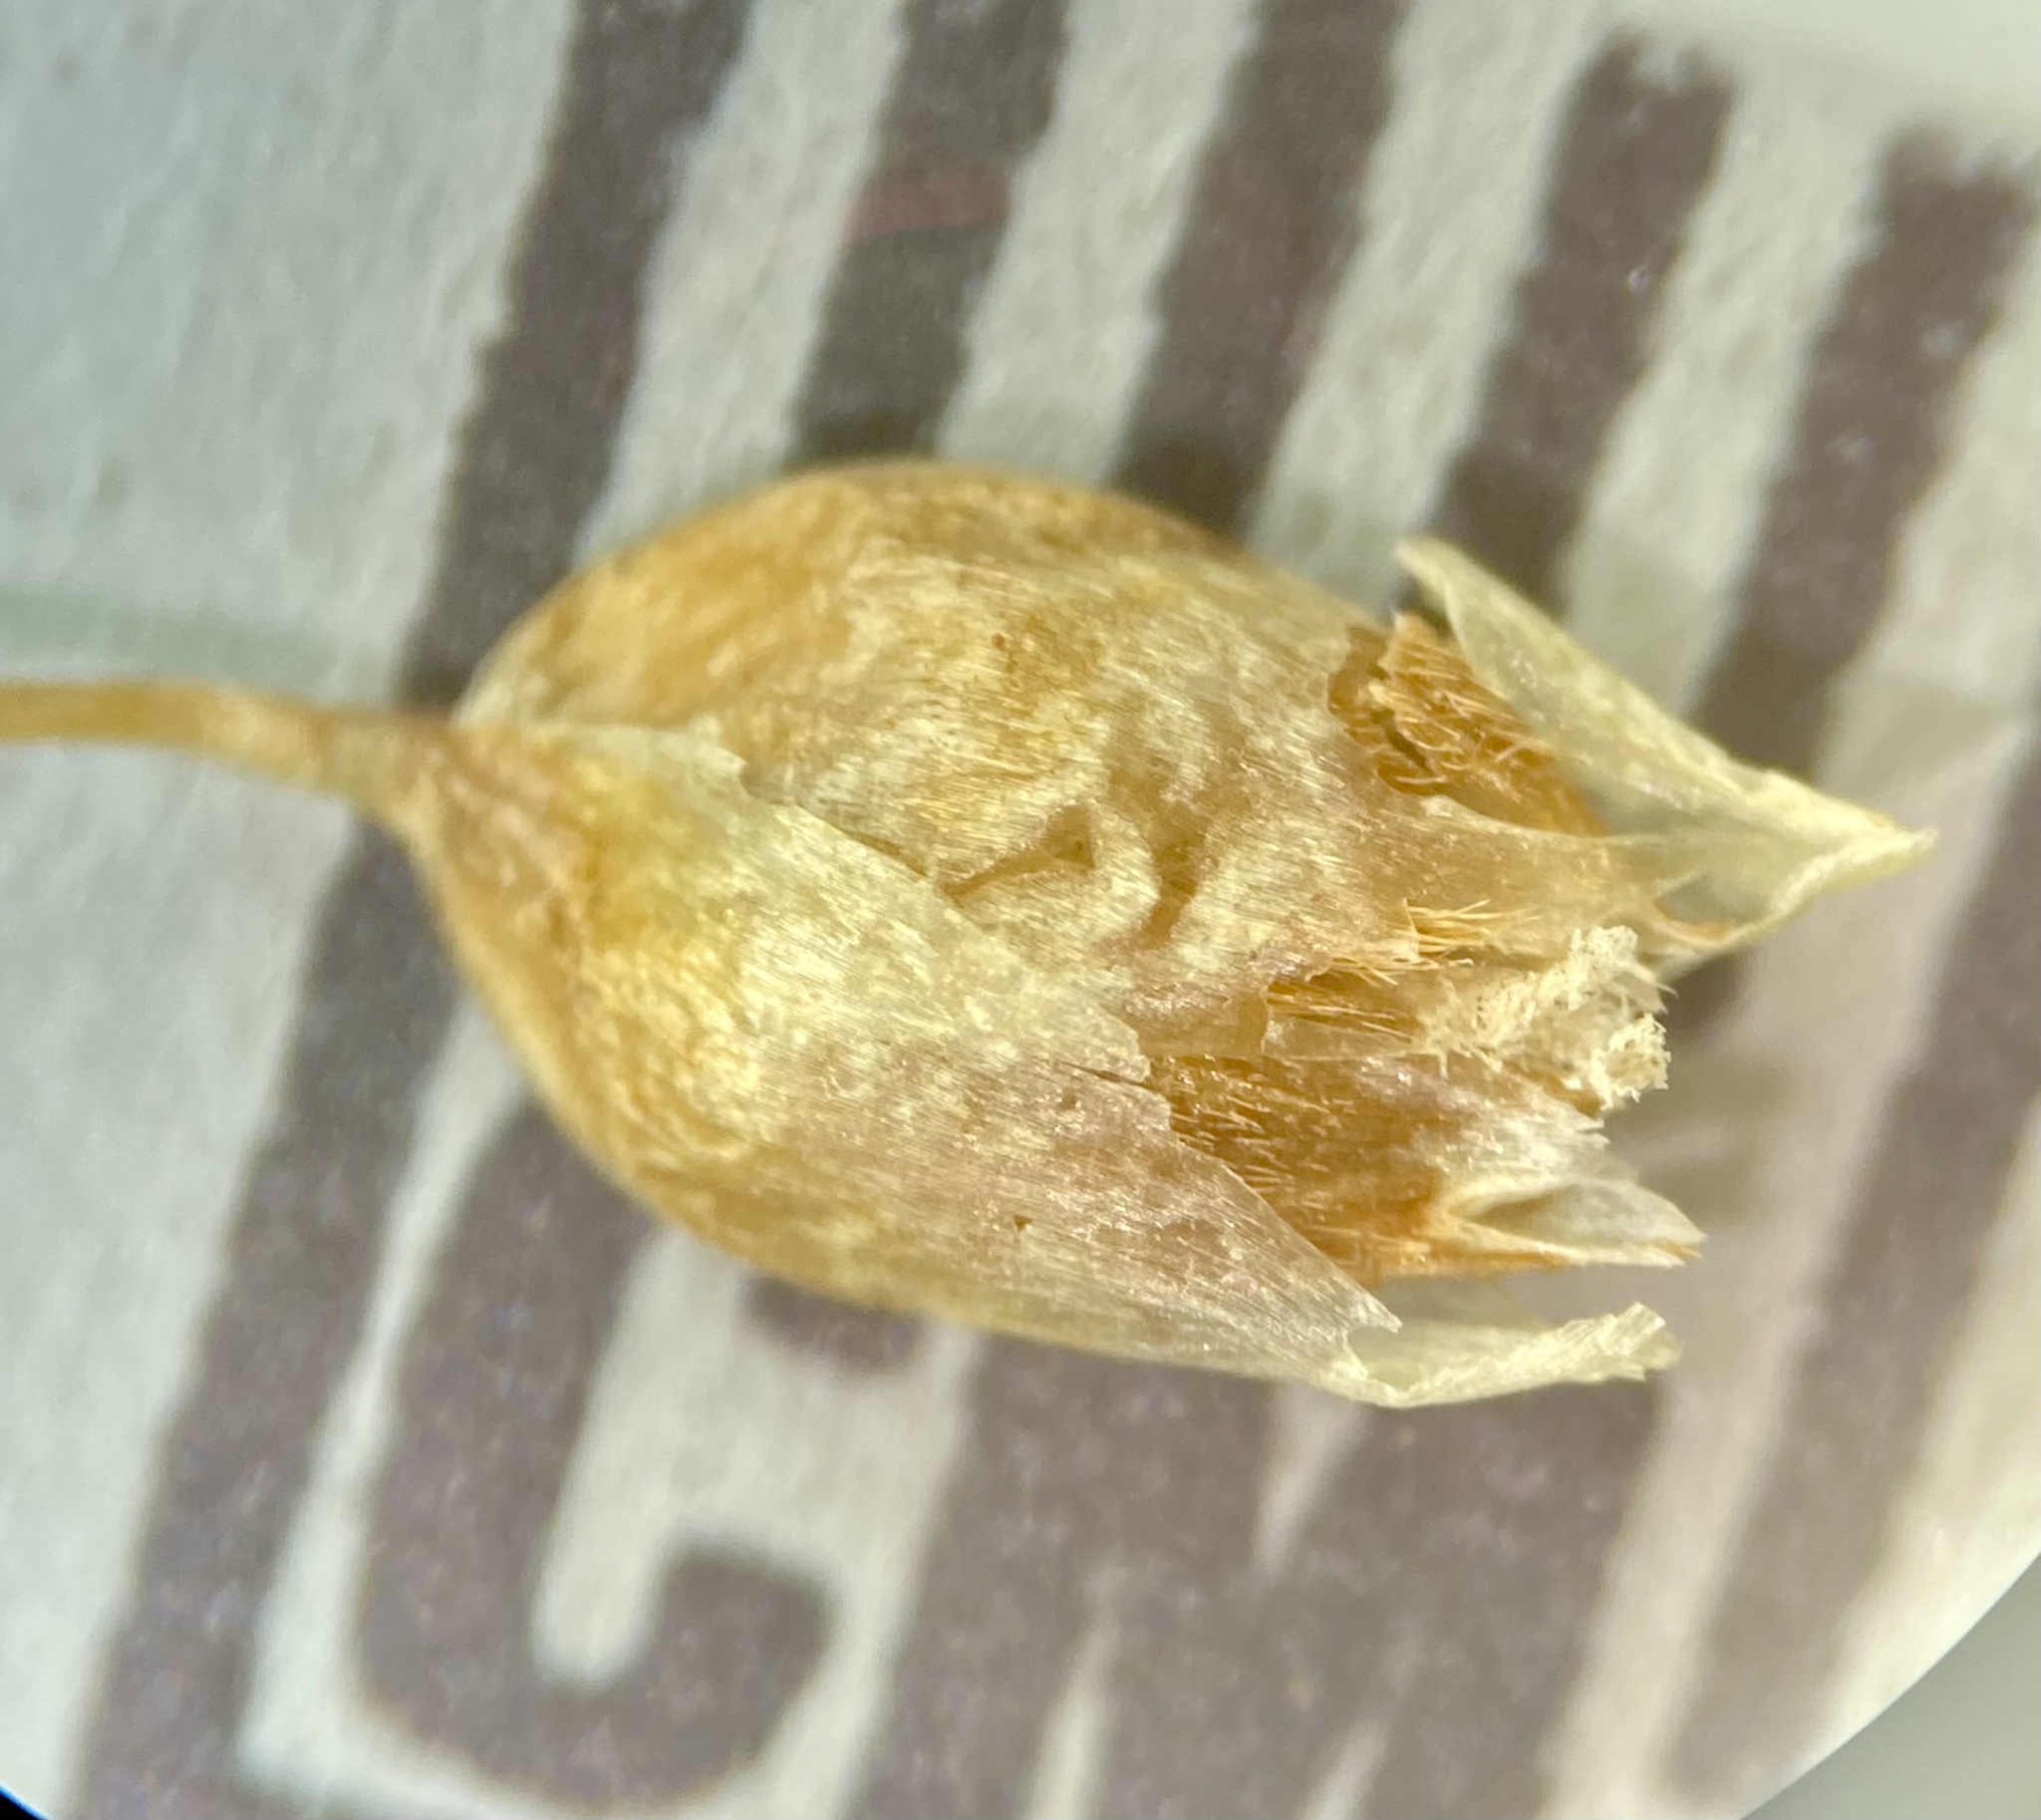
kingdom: Plantae
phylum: Tracheophyta
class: Liliopsida
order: Poales
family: Poaceae
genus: Anthoxanthum
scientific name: Anthoxanthum nitens
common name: Holy grass
